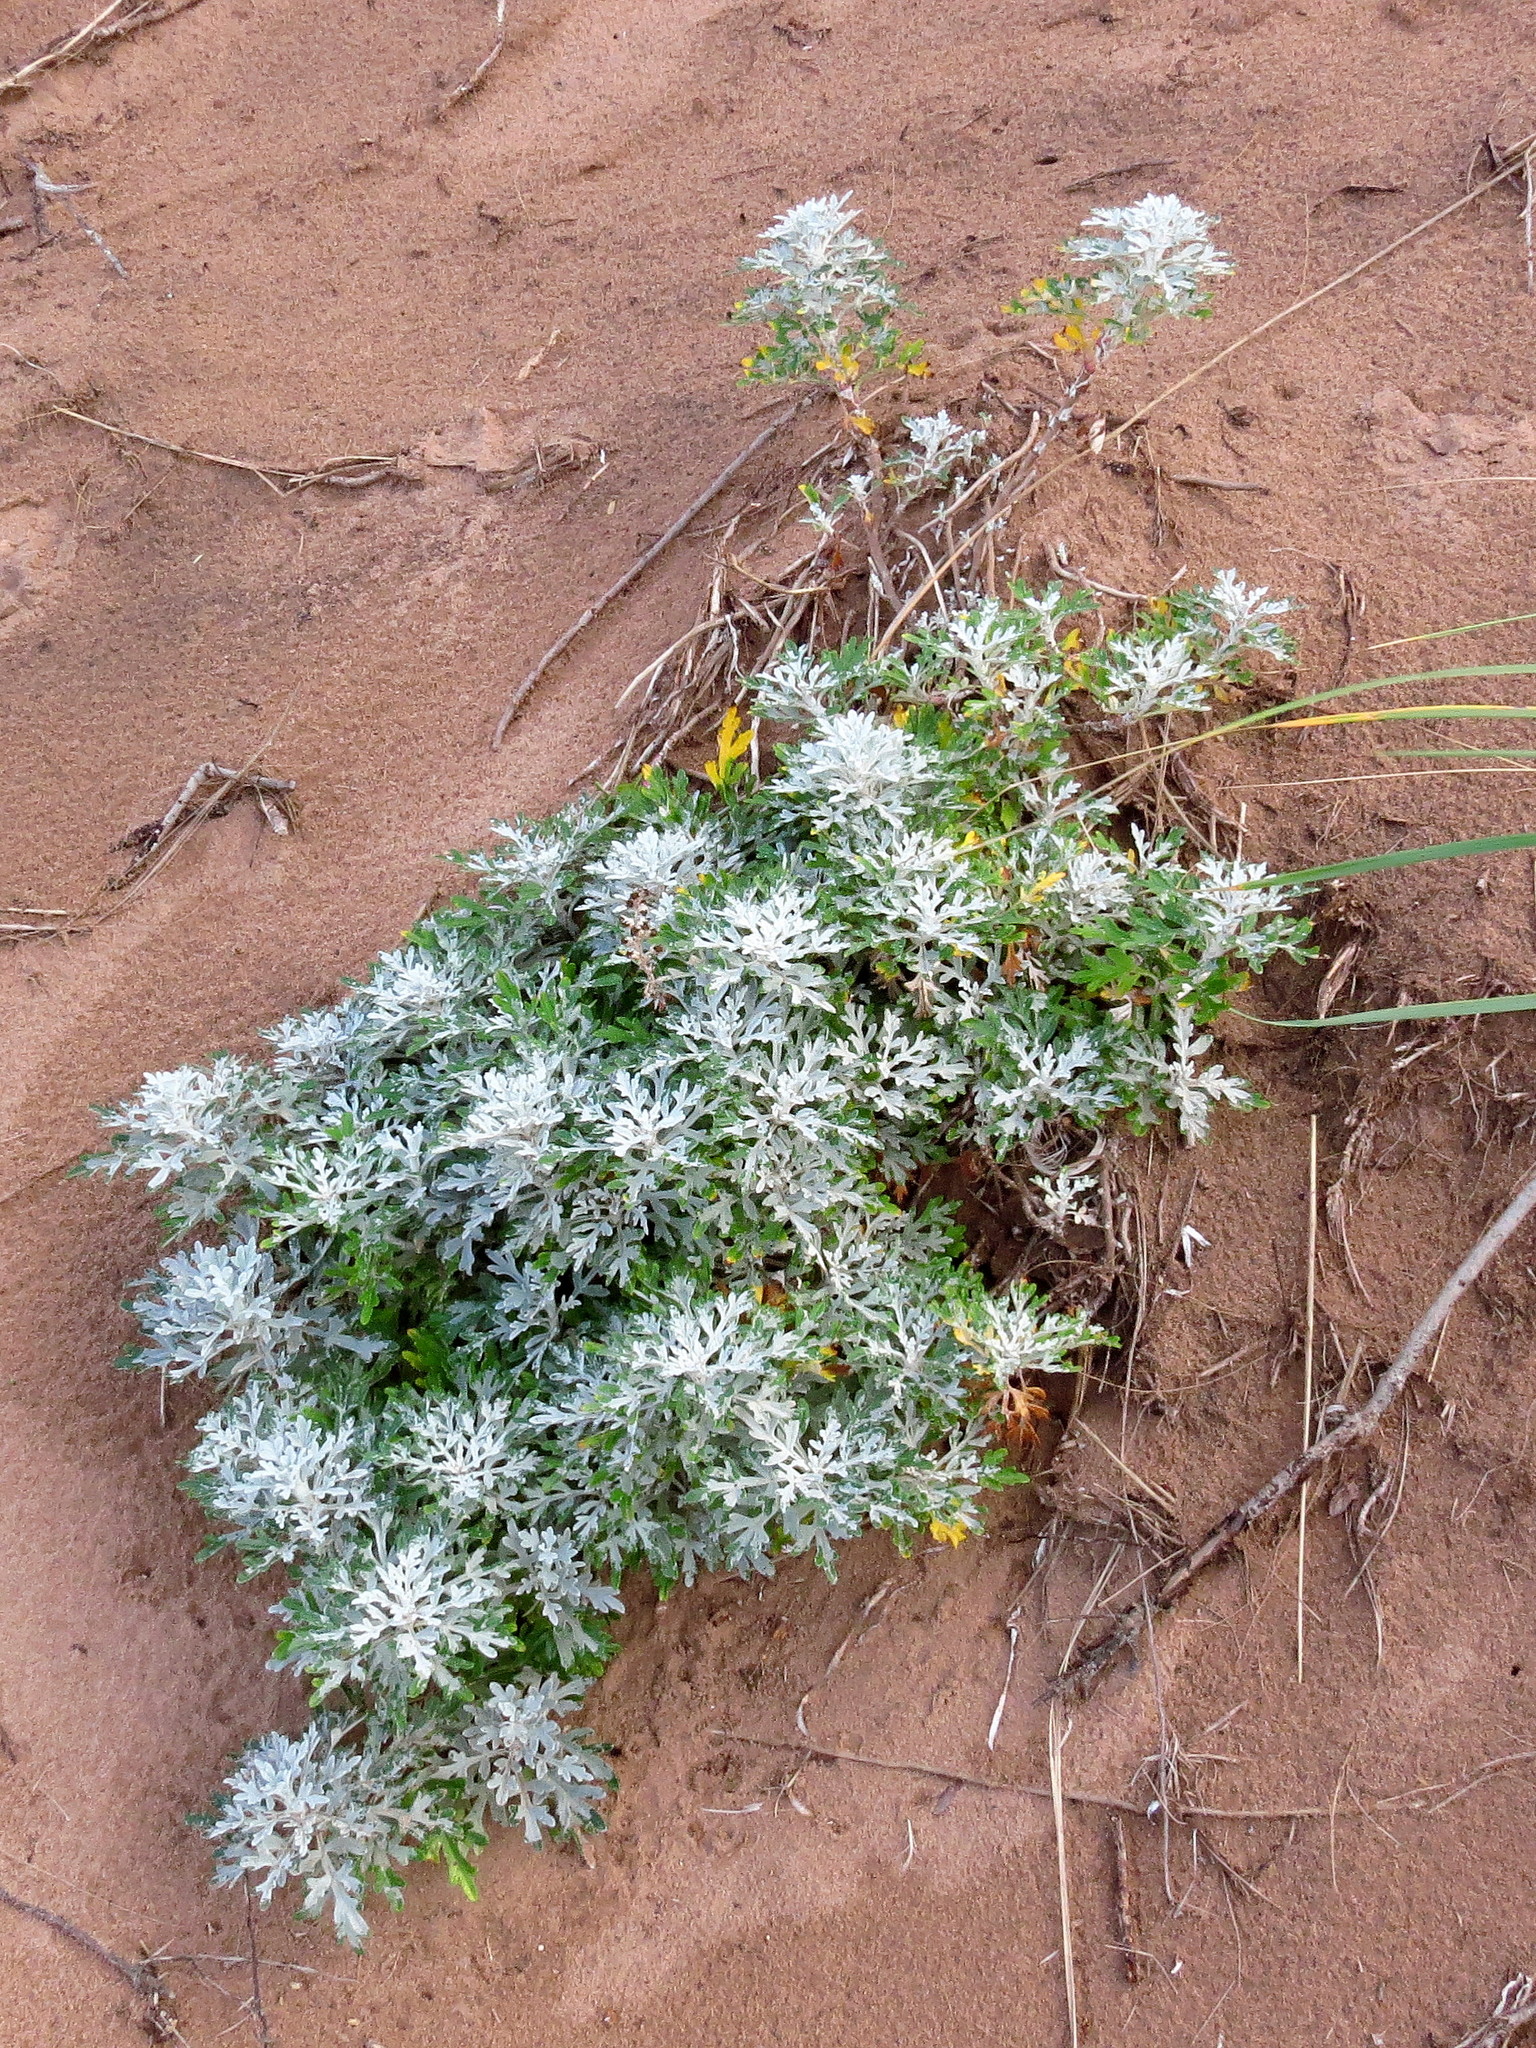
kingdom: Plantae
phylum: Tracheophyta
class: Magnoliopsida
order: Asterales
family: Asteraceae
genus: Artemisia
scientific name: Artemisia stelleriana
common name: Beach wormwood
